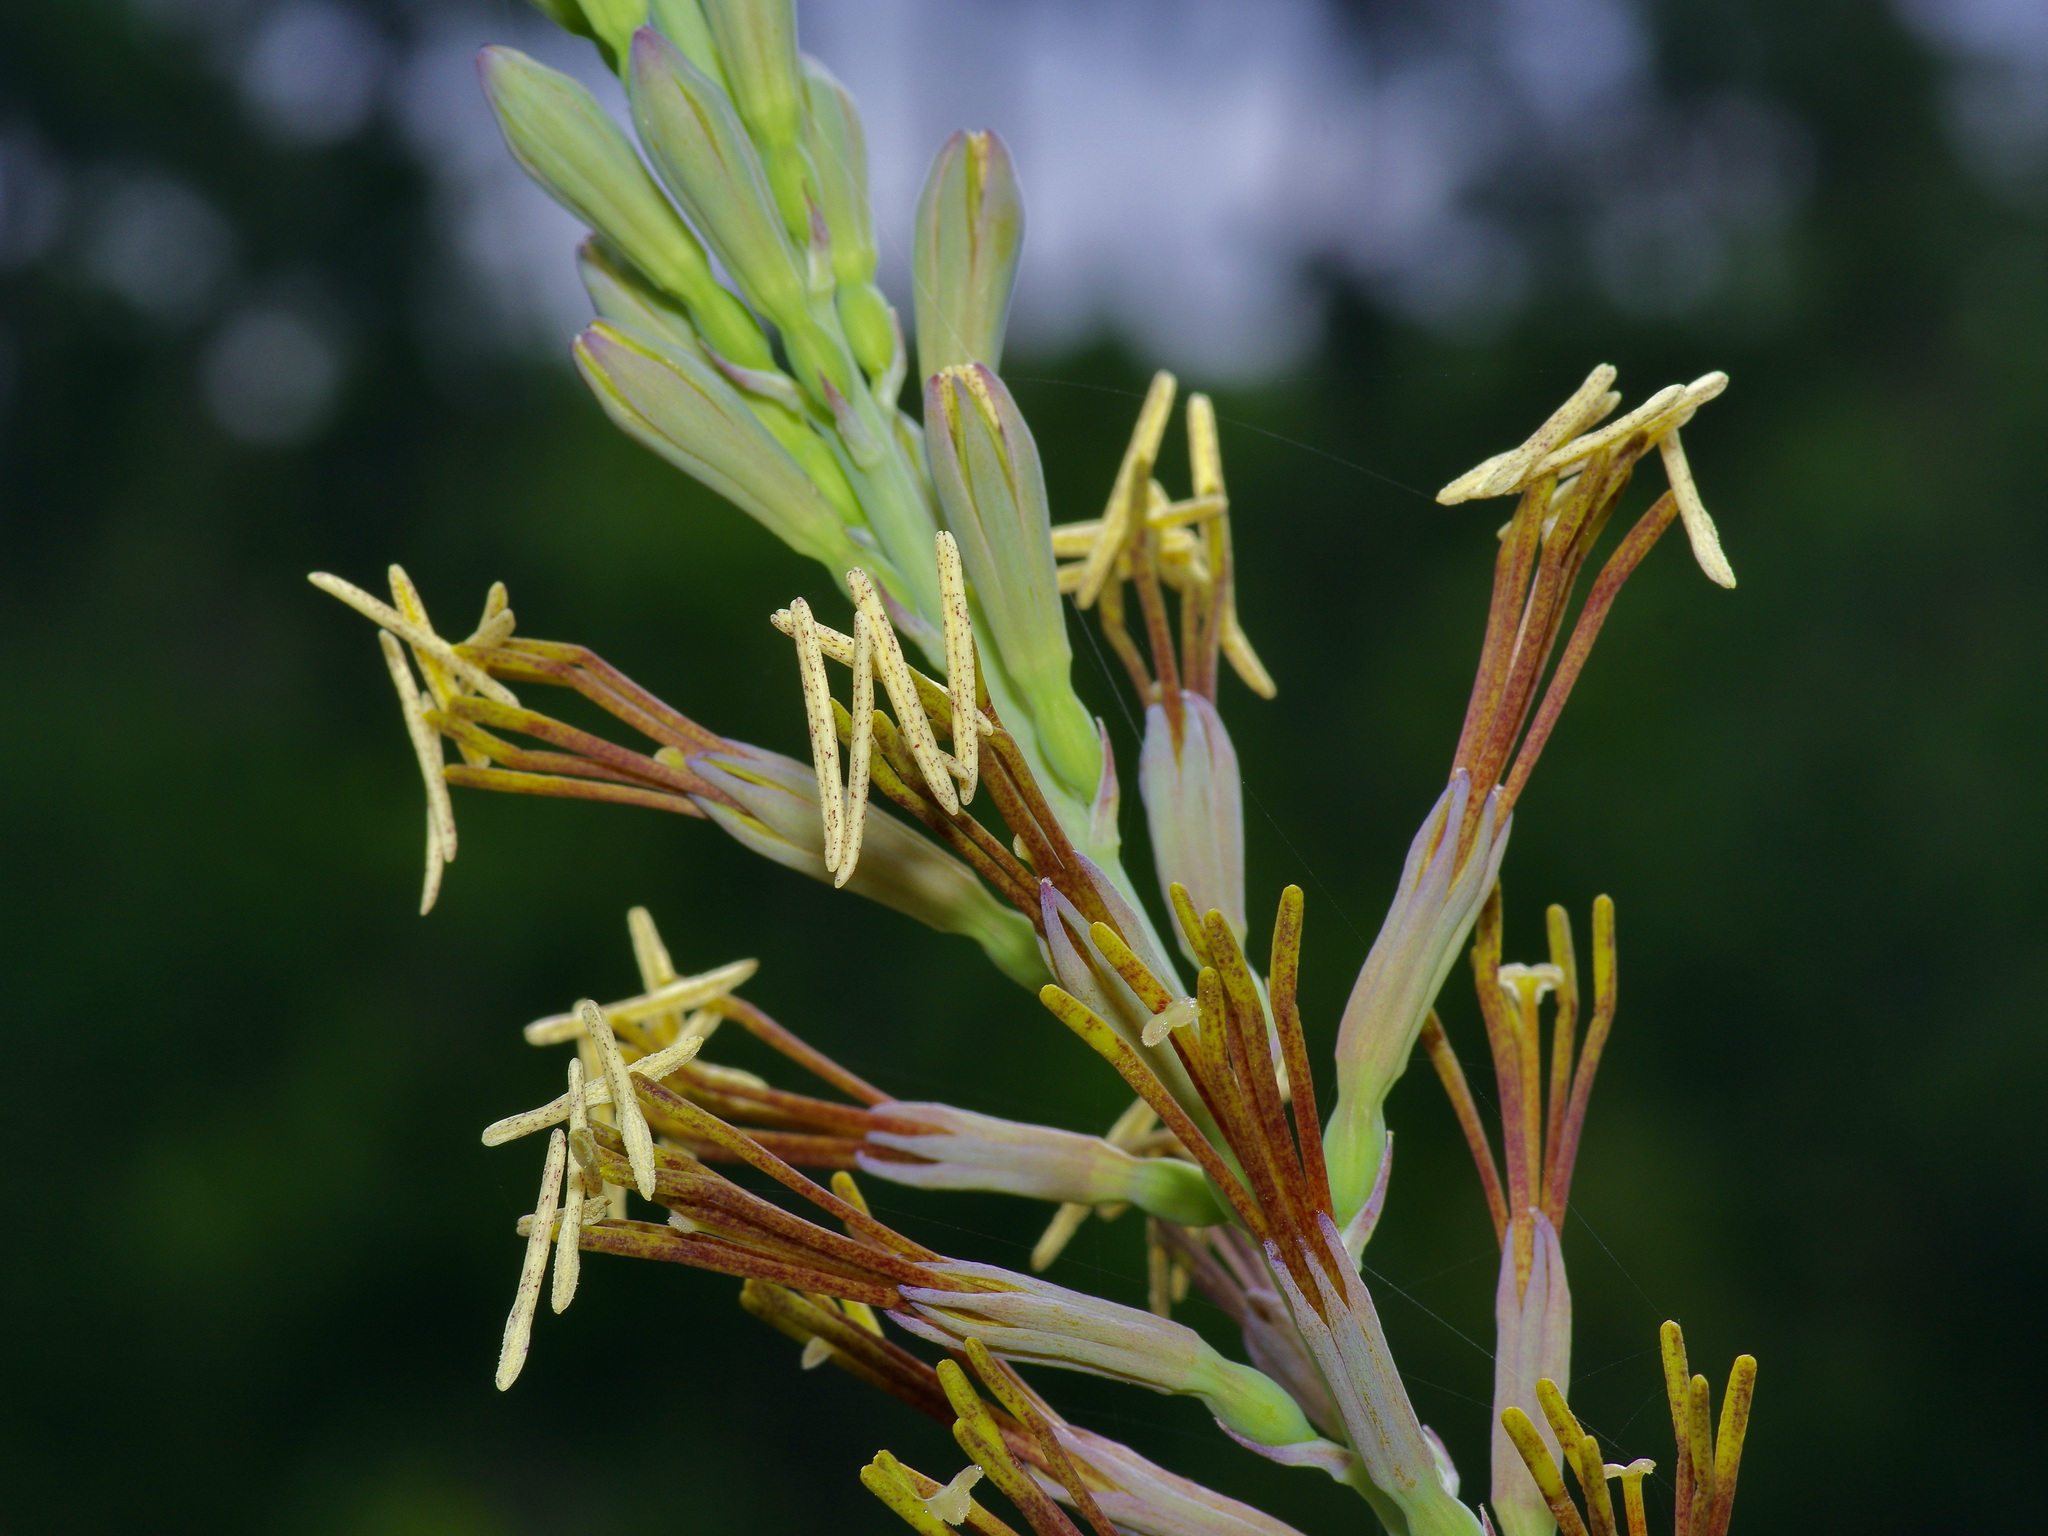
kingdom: Plantae
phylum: Tracheophyta
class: Liliopsida
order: Asparagales
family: Asparagaceae
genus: Agave
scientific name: Agave virginica
